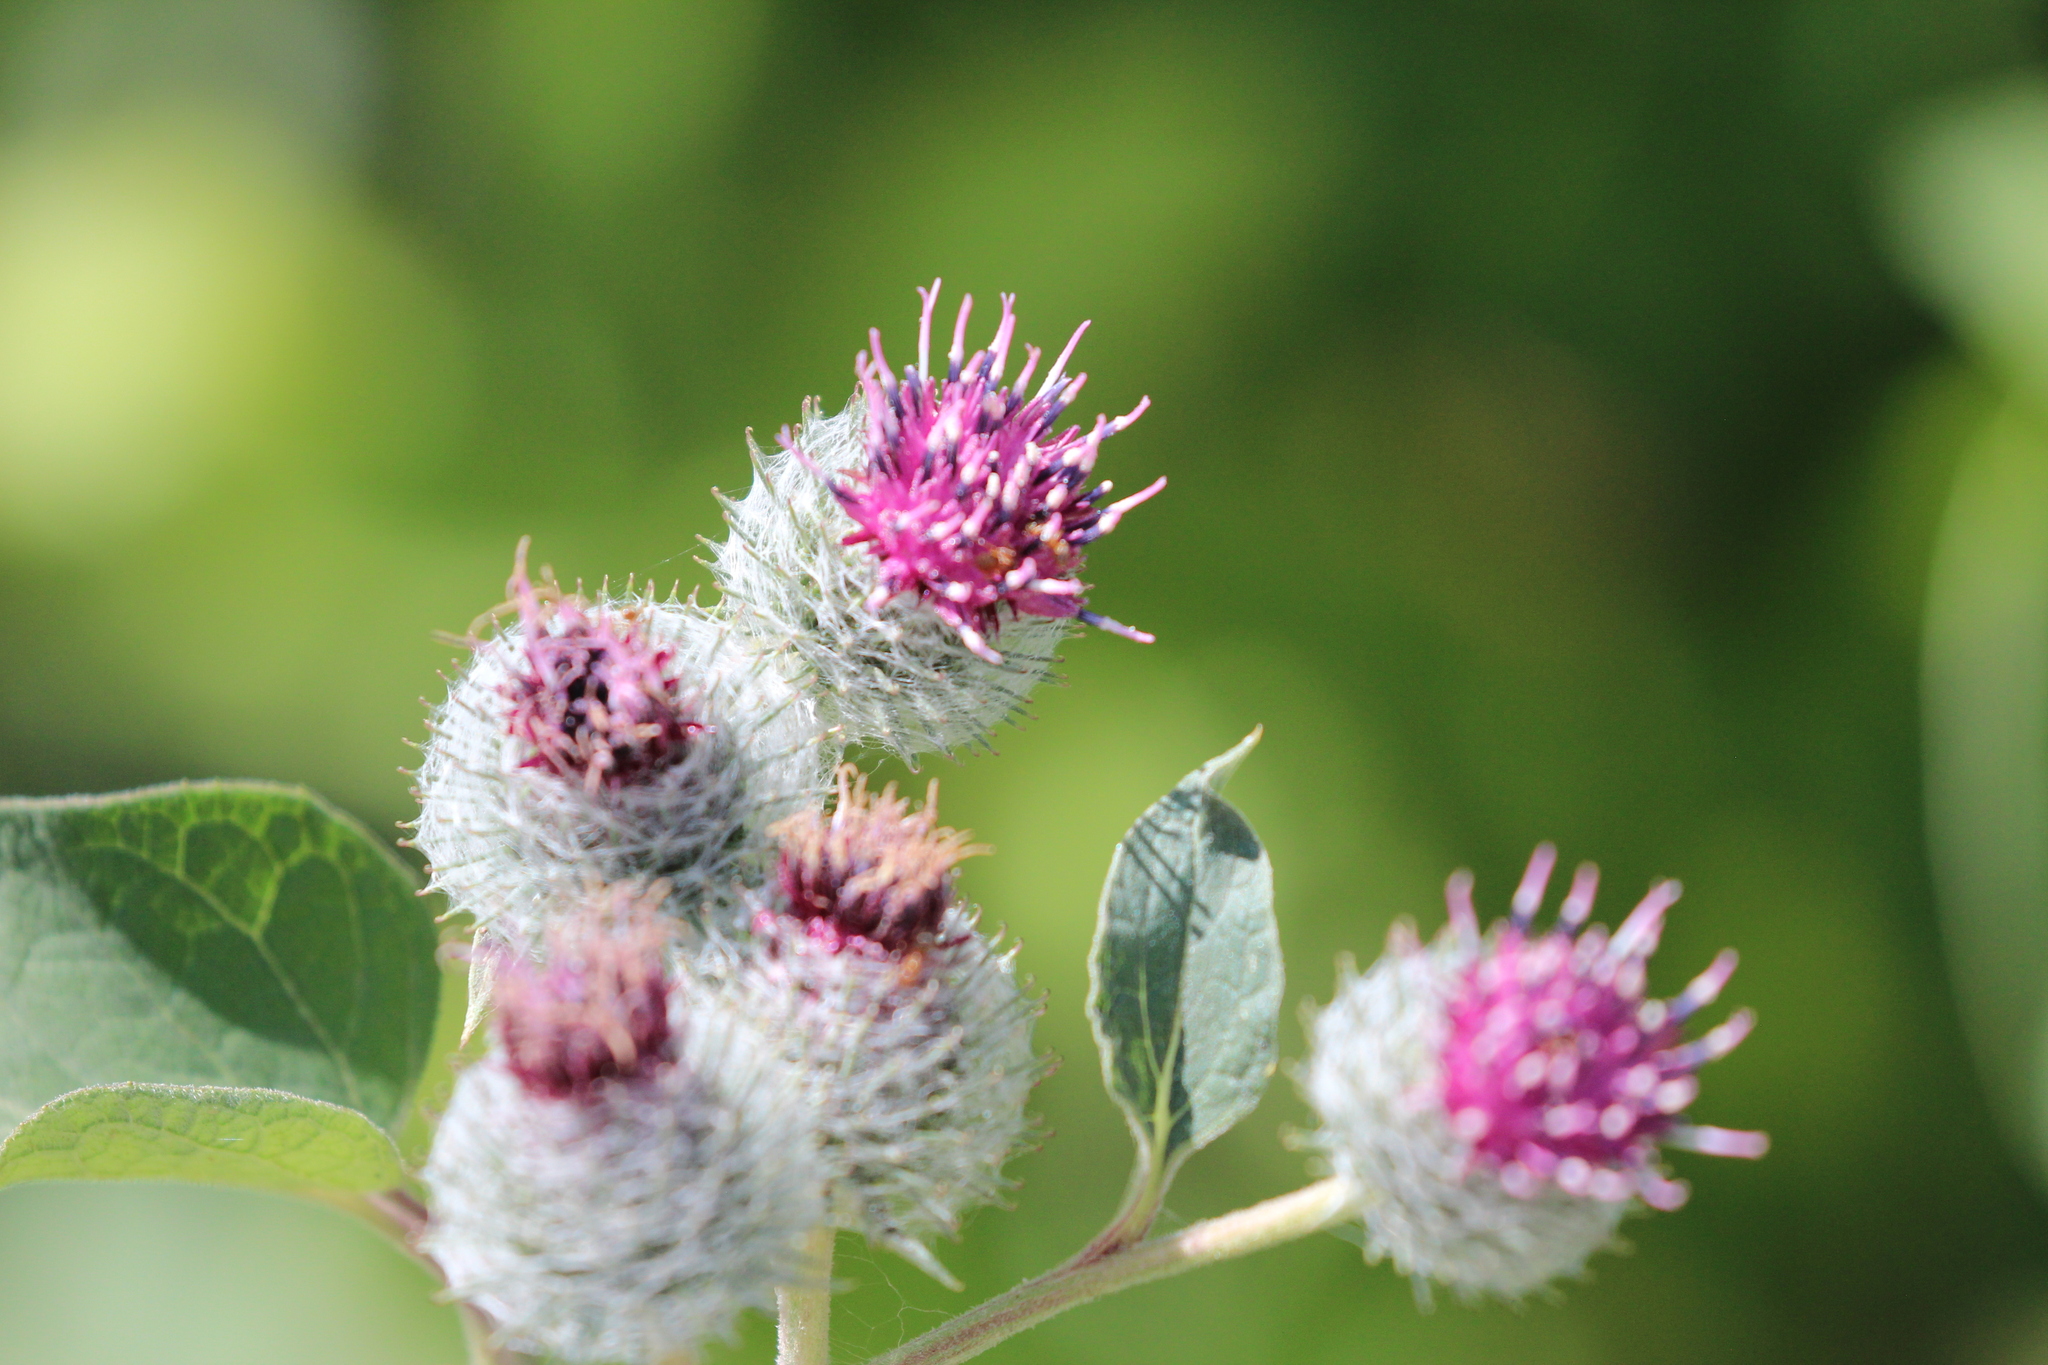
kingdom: Plantae
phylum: Tracheophyta
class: Magnoliopsida
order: Asterales
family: Asteraceae
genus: Arctium
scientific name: Arctium tomentosum
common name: Woolly burdock
